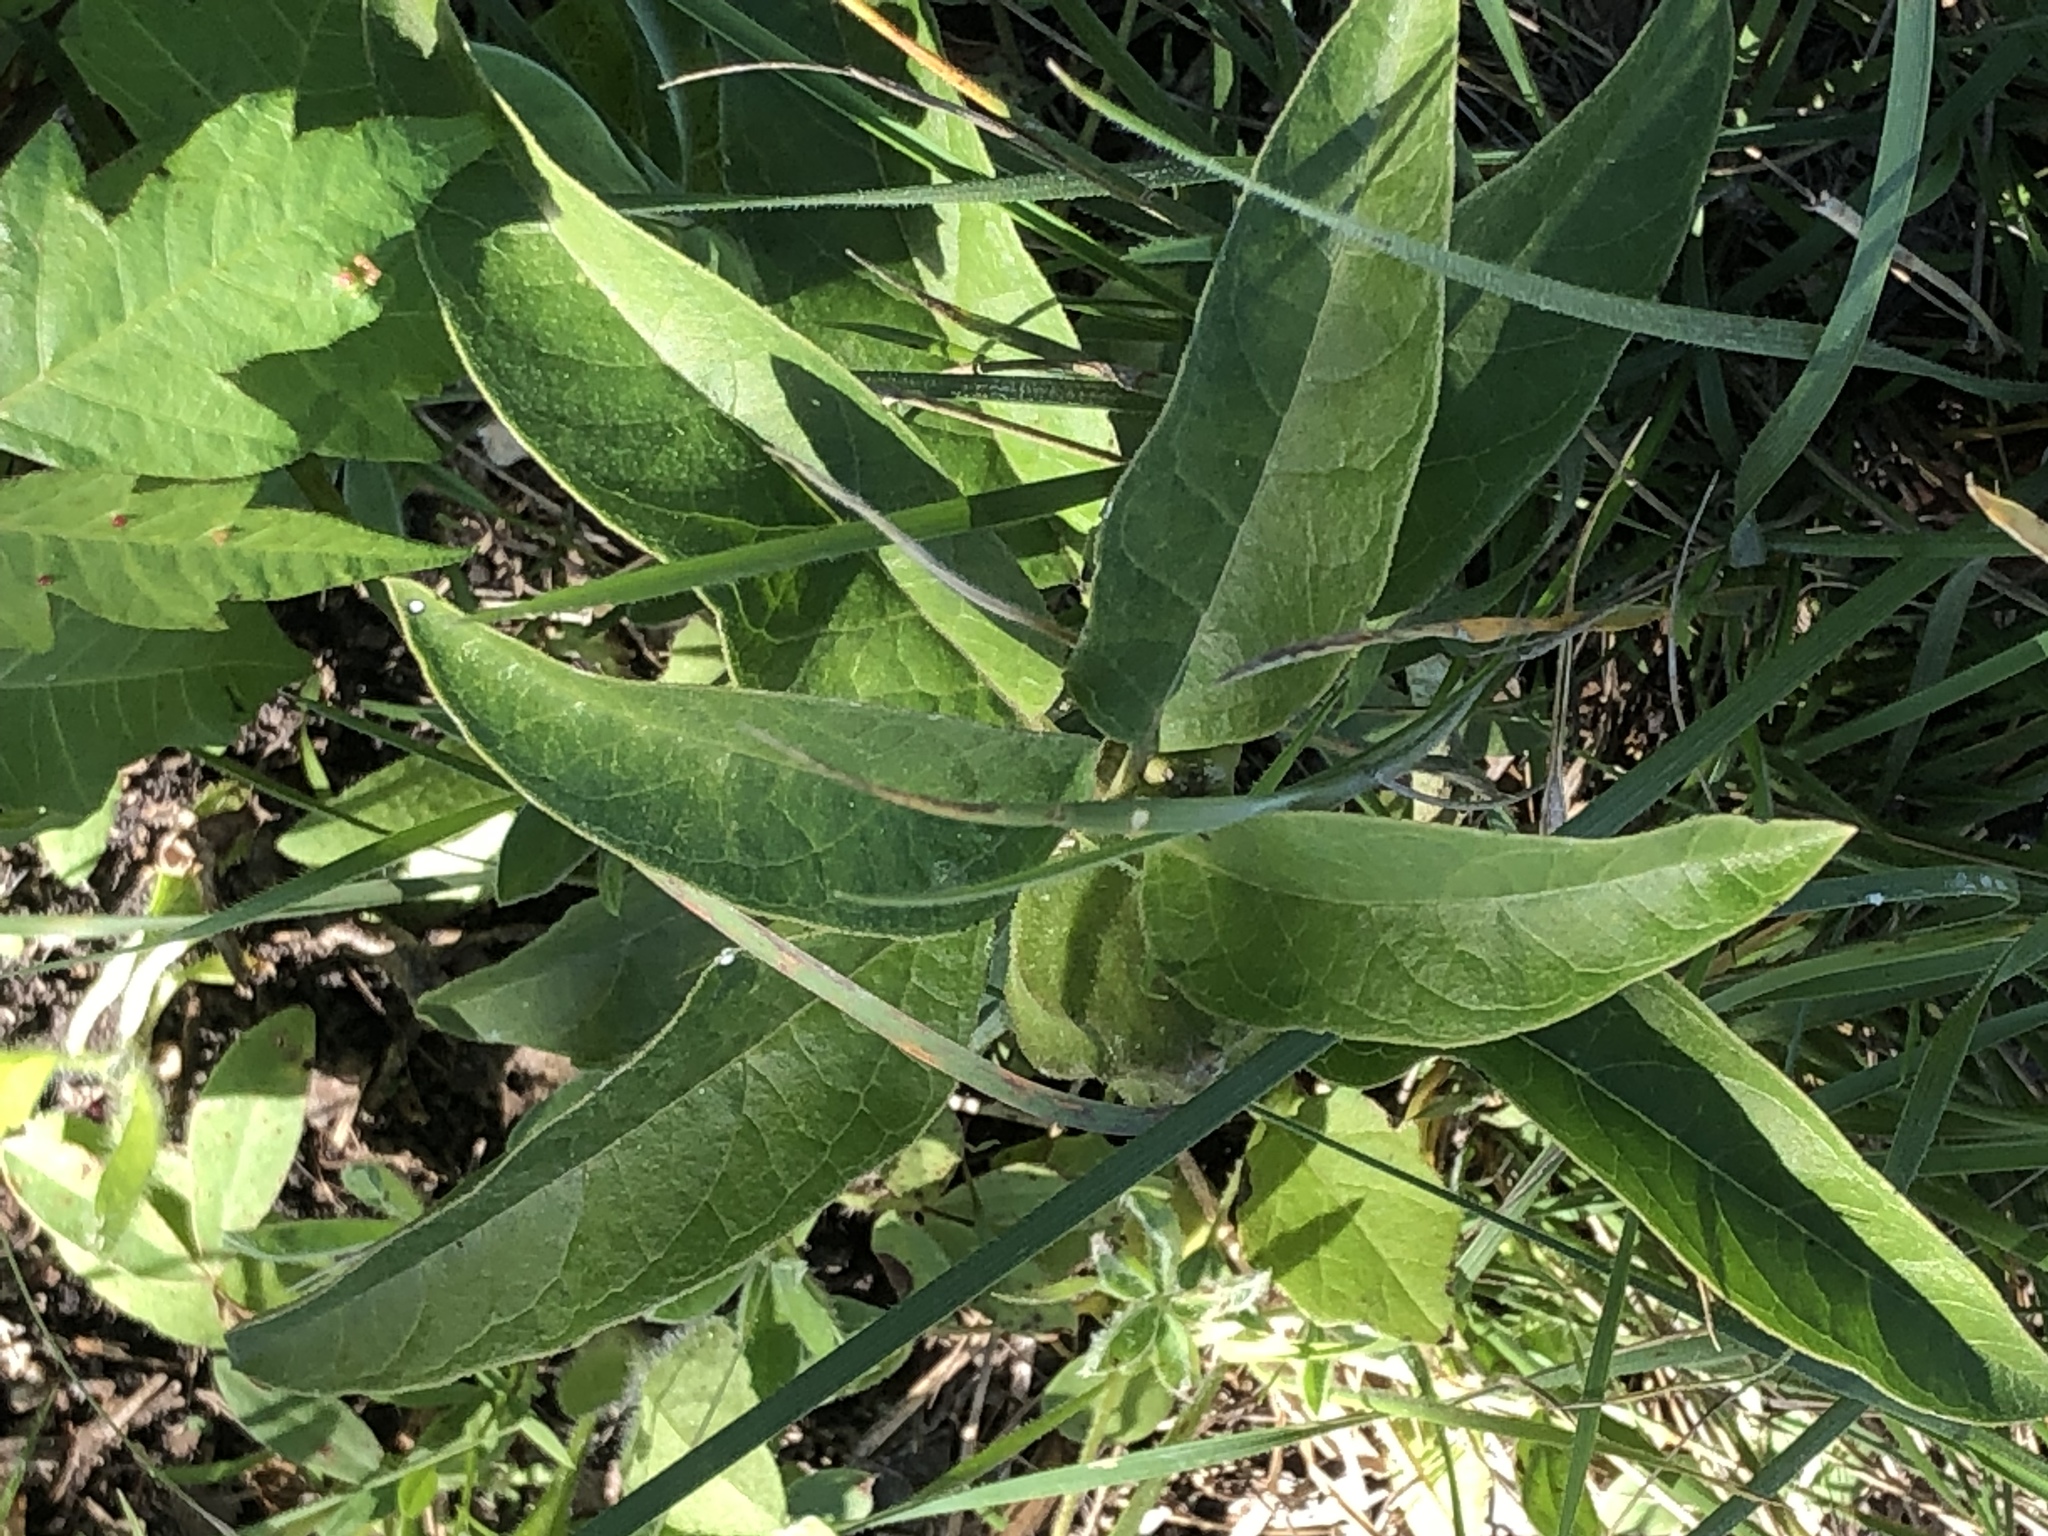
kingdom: Plantae
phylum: Tracheophyta
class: Magnoliopsida
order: Gentianales
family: Apocynaceae
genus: Asclepias
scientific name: Asclepias oenotheroides
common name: Zizotes milkweed
